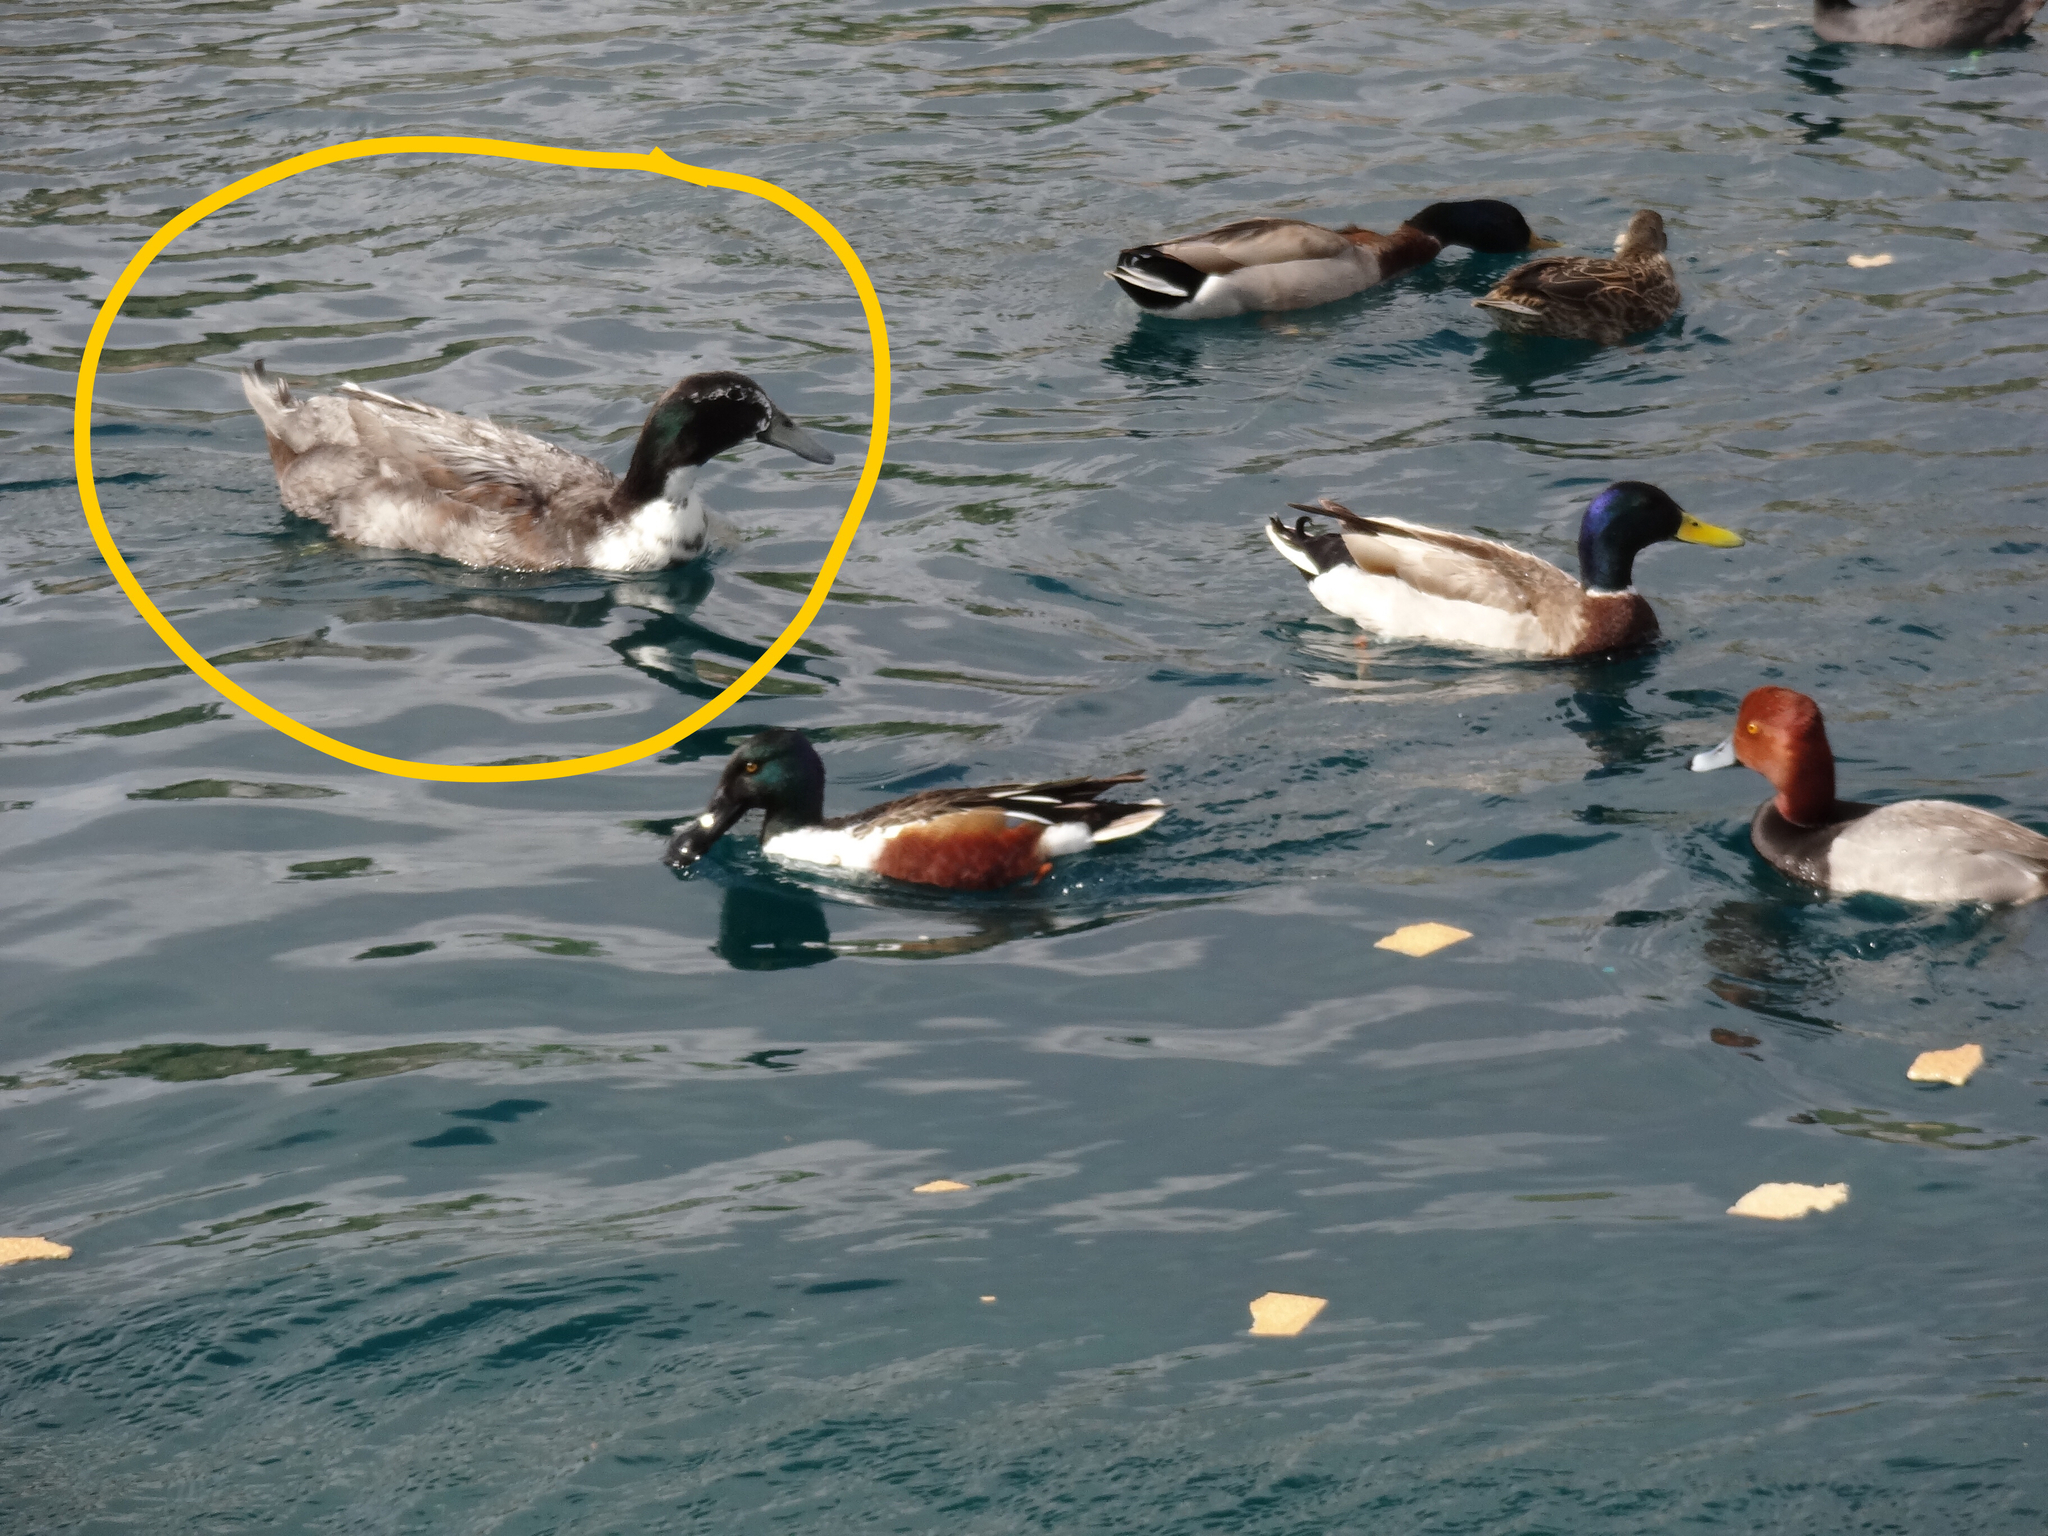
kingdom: Animalia
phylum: Chordata
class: Aves
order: Anseriformes
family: Anatidae
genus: Anas
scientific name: Anas platyrhynchos
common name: Mallard
